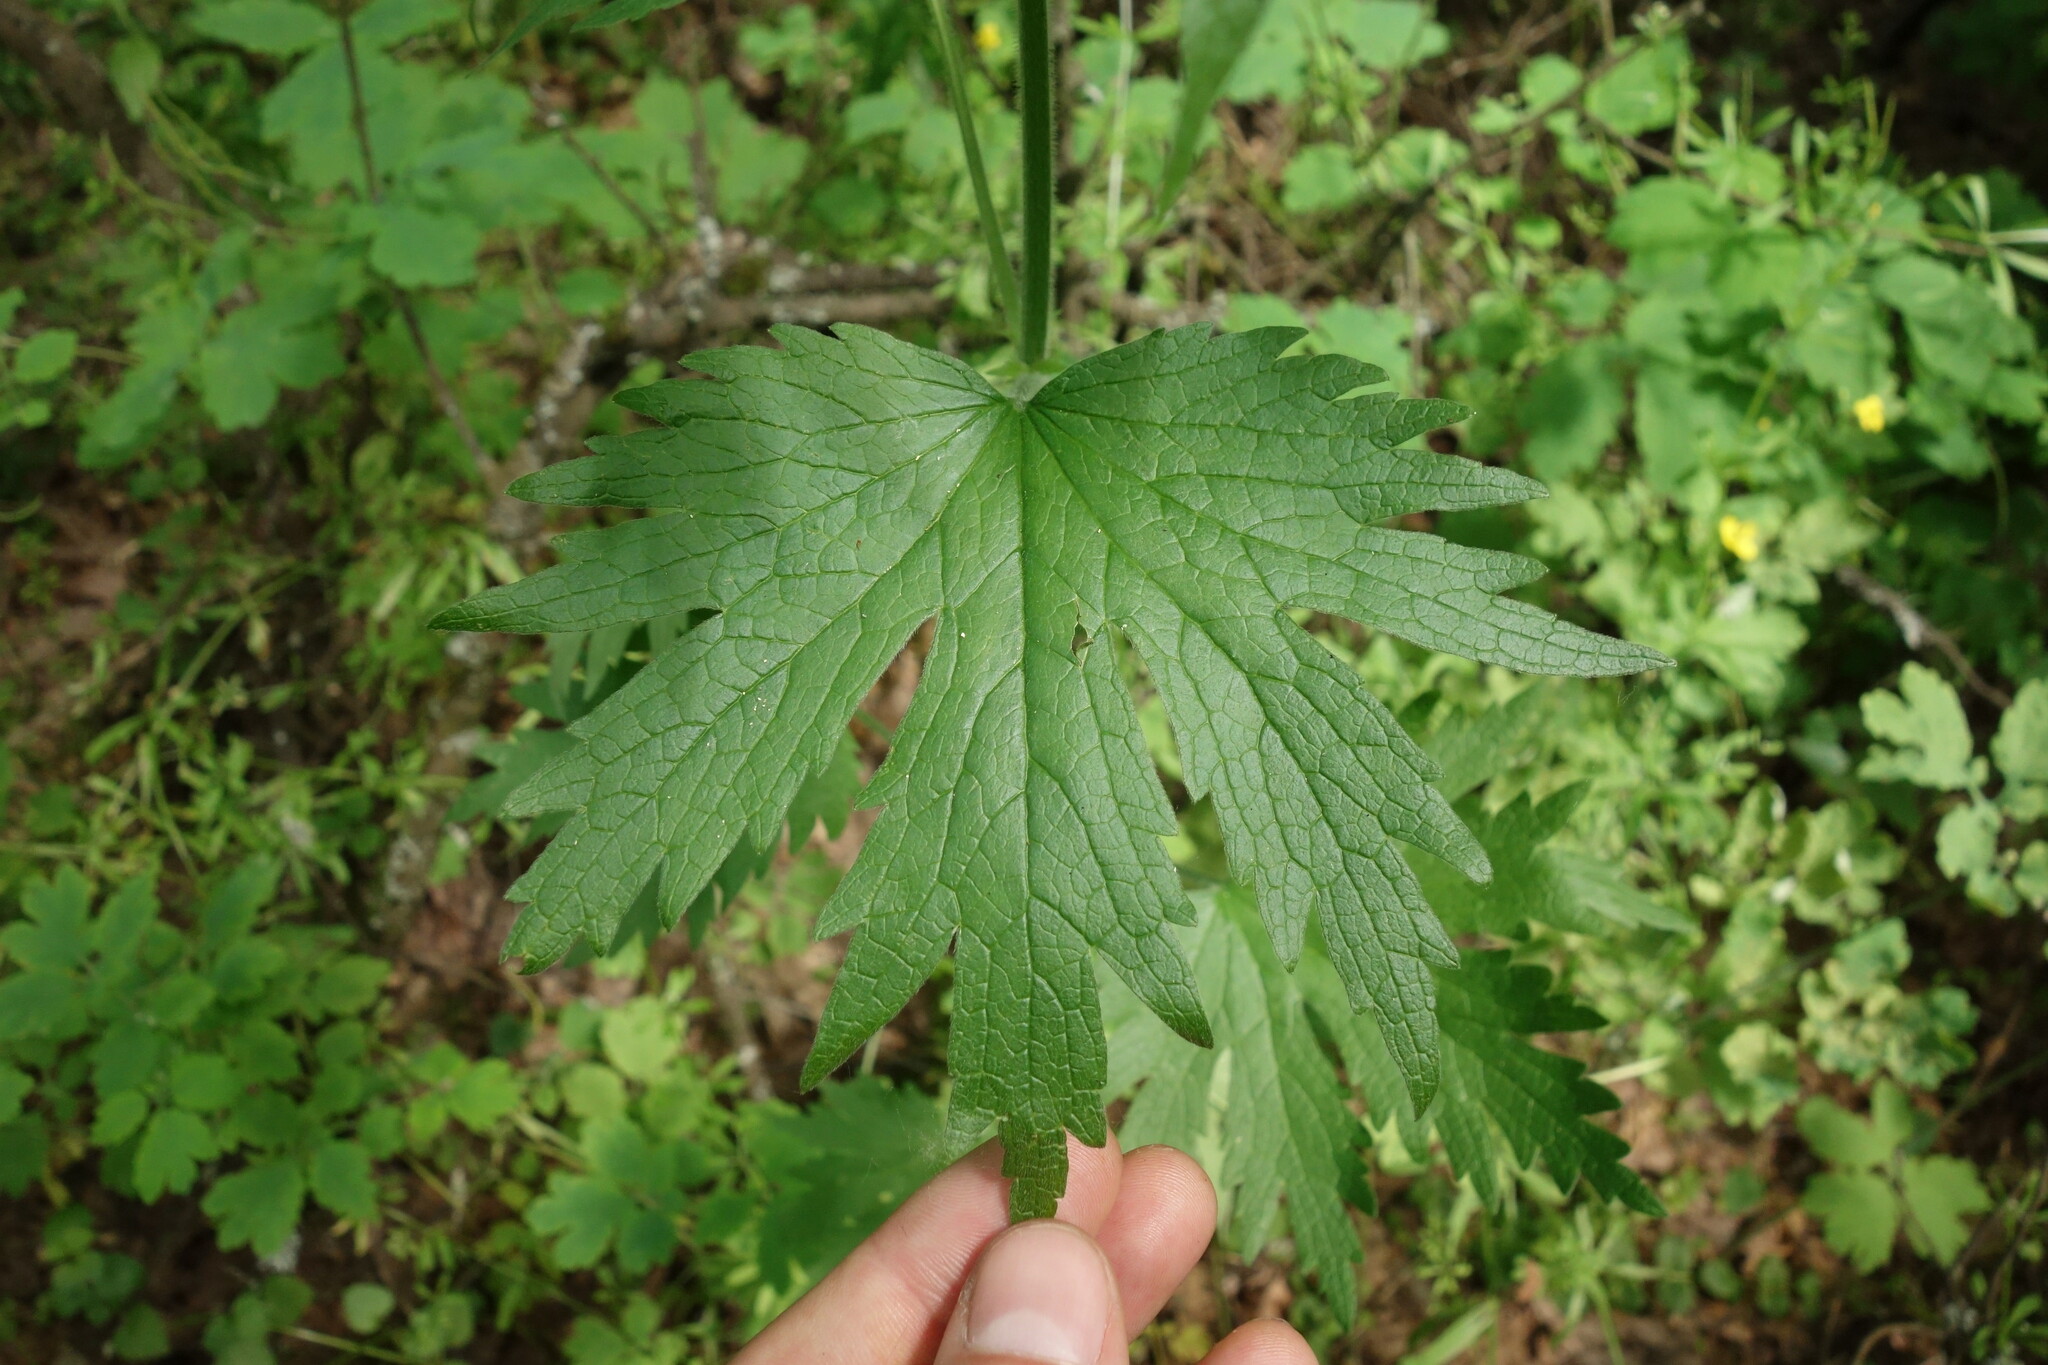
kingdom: Plantae
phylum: Tracheophyta
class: Magnoliopsida
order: Lamiales
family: Lamiaceae
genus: Leonurus
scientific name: Leonurus quinquelobatus
